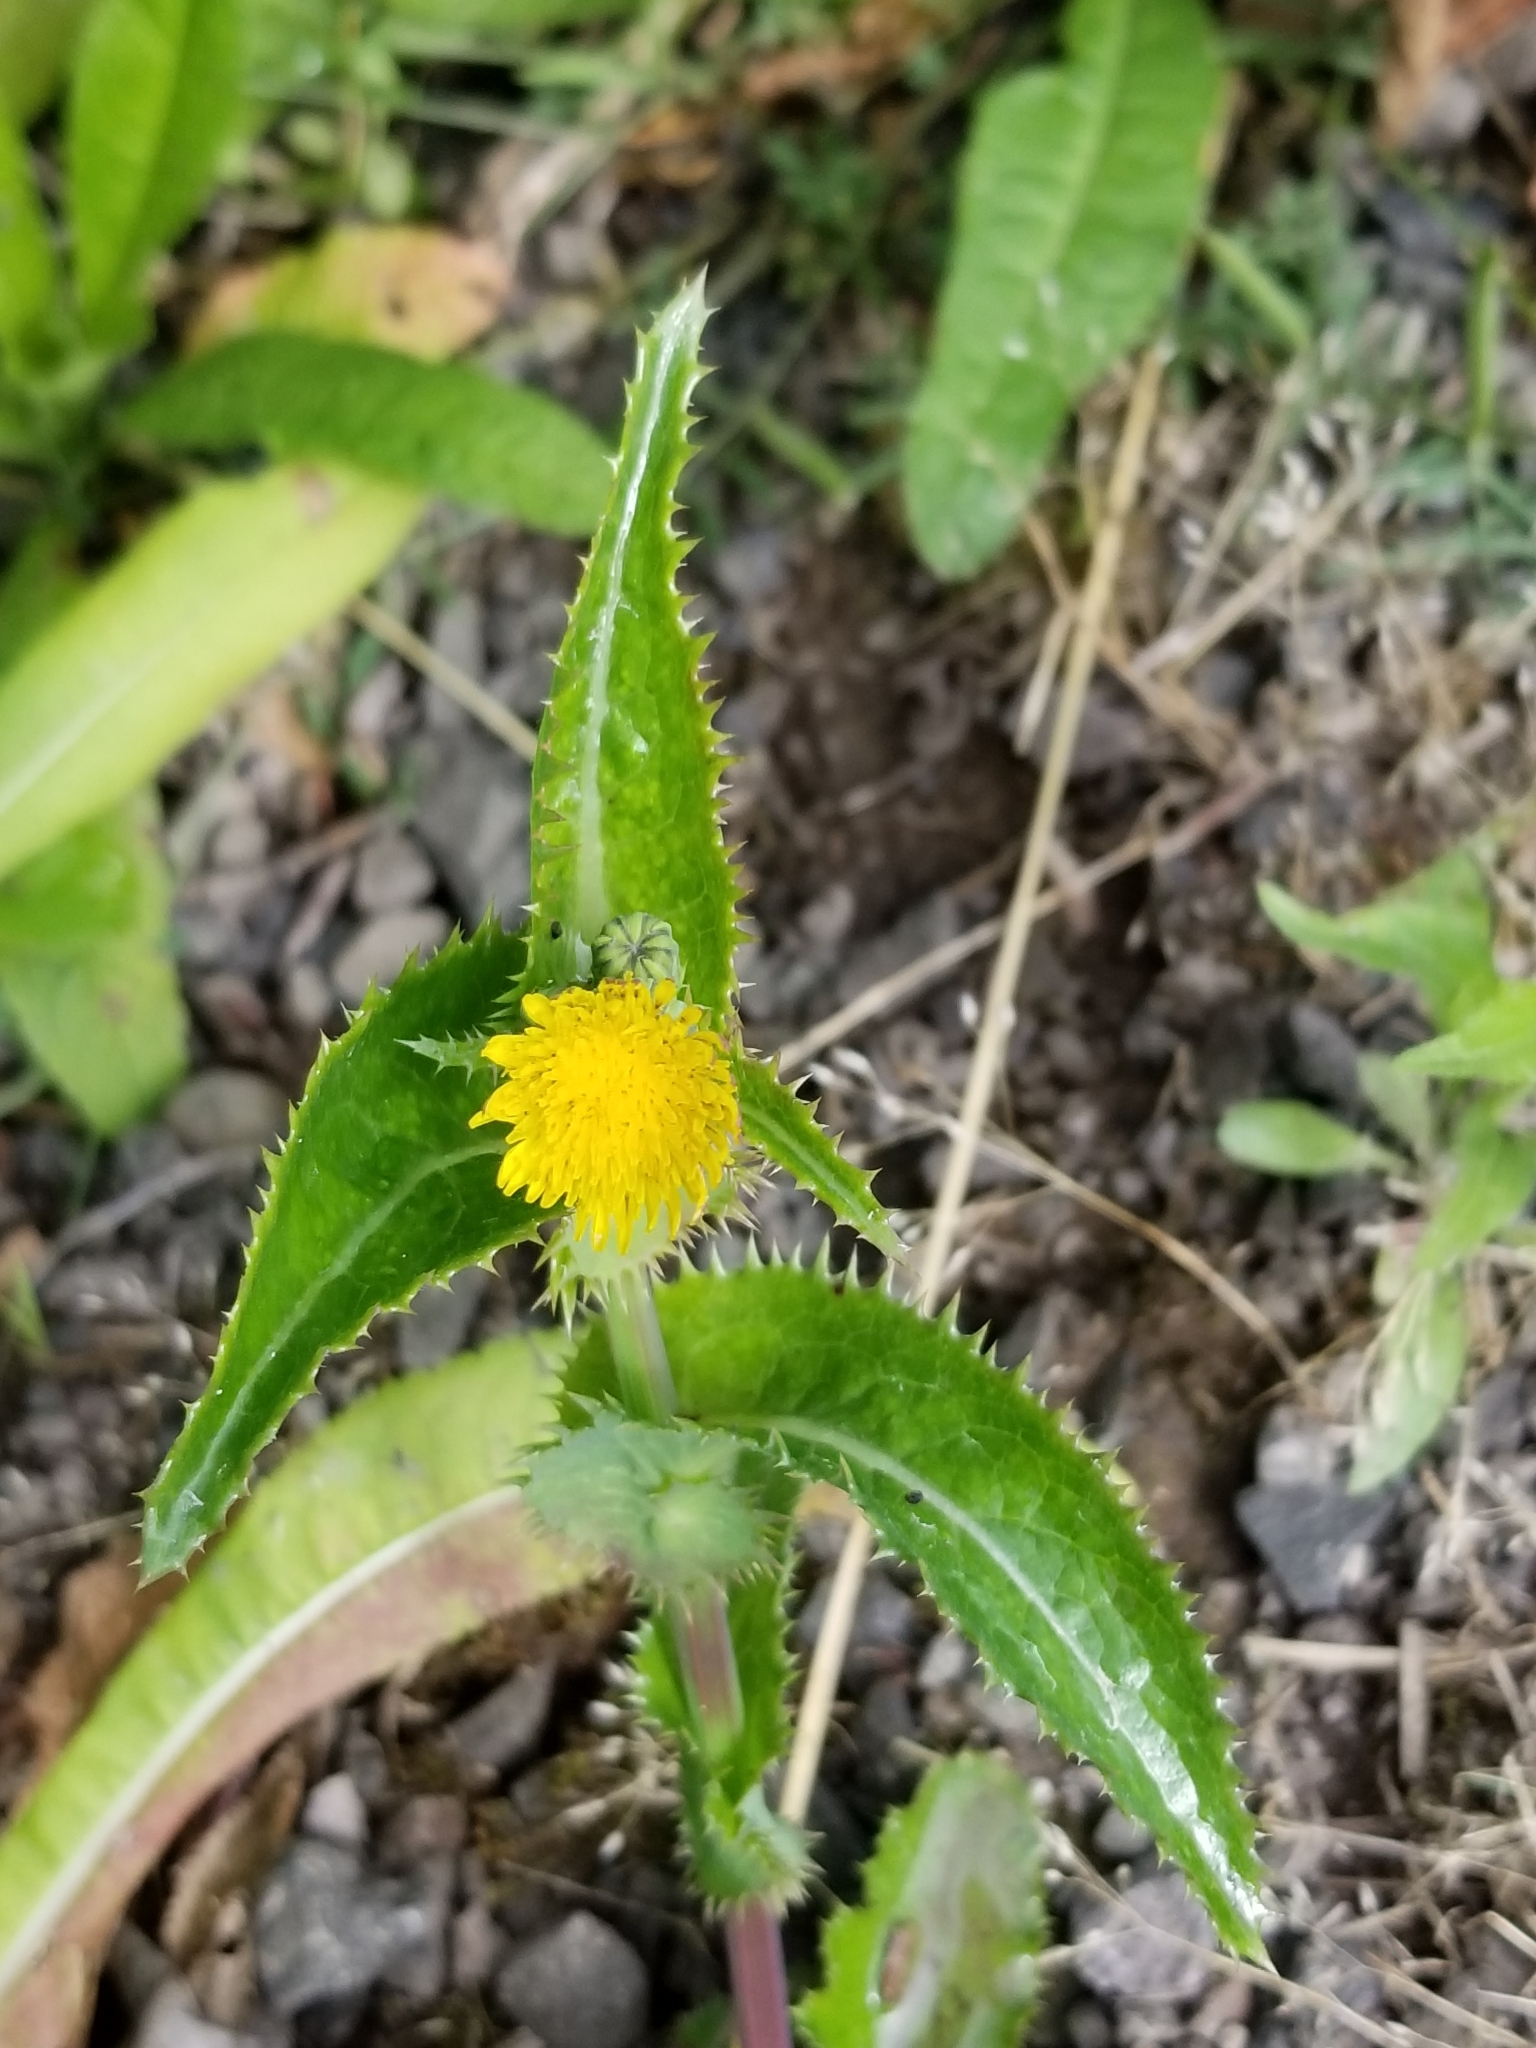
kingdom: Plantae
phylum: Tracheophyta
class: Magnoliopsida
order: Asterales
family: Asteraceae
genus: Sonchus
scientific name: Sonchus asper
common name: Prickly sow-thistle
